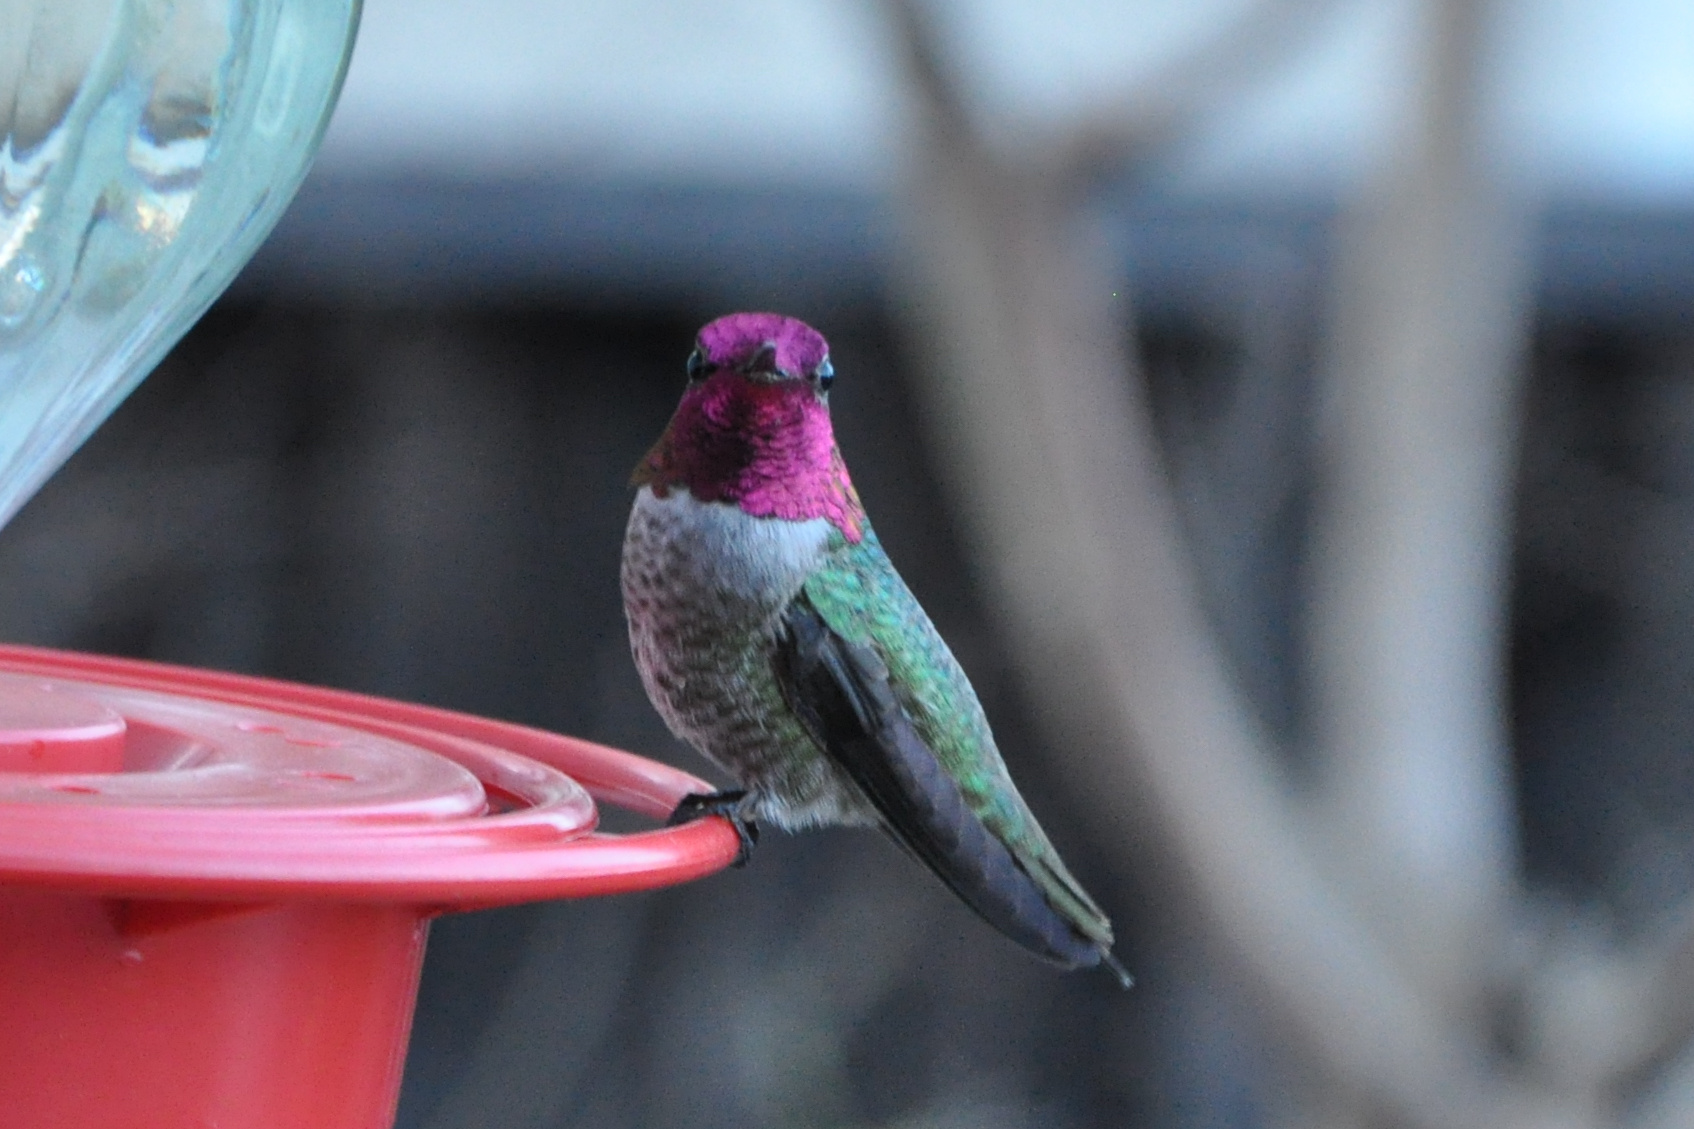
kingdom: Animalia
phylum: Chordata
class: Aves
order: Apodiformes
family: Trochilidae
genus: Calypte
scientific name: Calypte anna
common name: Anna's hummingbird
